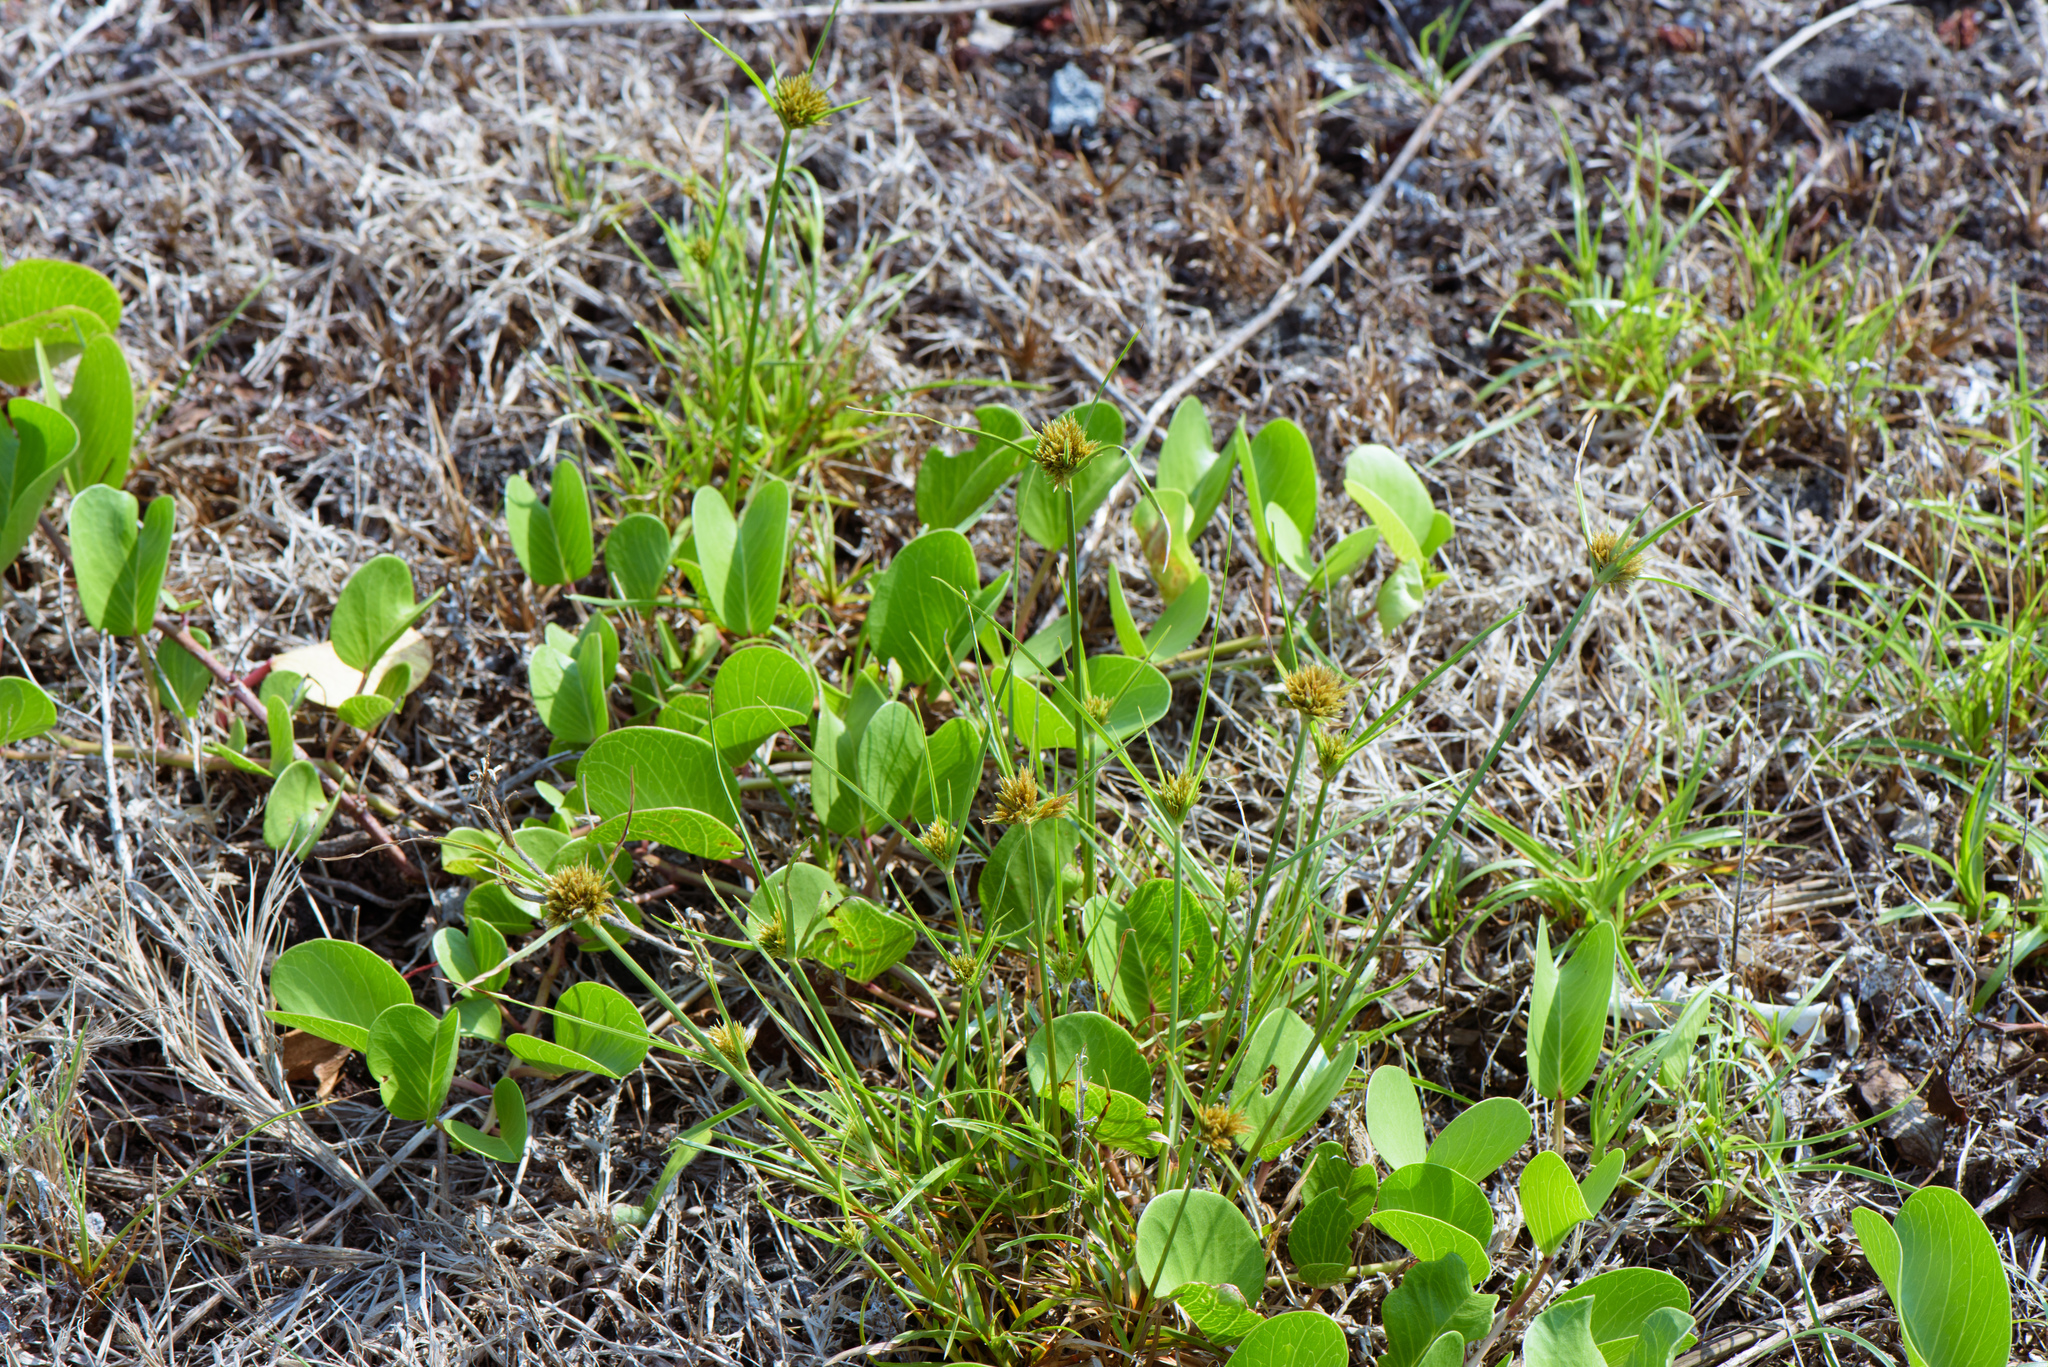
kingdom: Plantae
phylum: Tracheophyta
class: Liliopsida
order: Poales
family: Cyperaceae
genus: Cyperus
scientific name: Cyperus polystachyos
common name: Bunchy flat sedge
